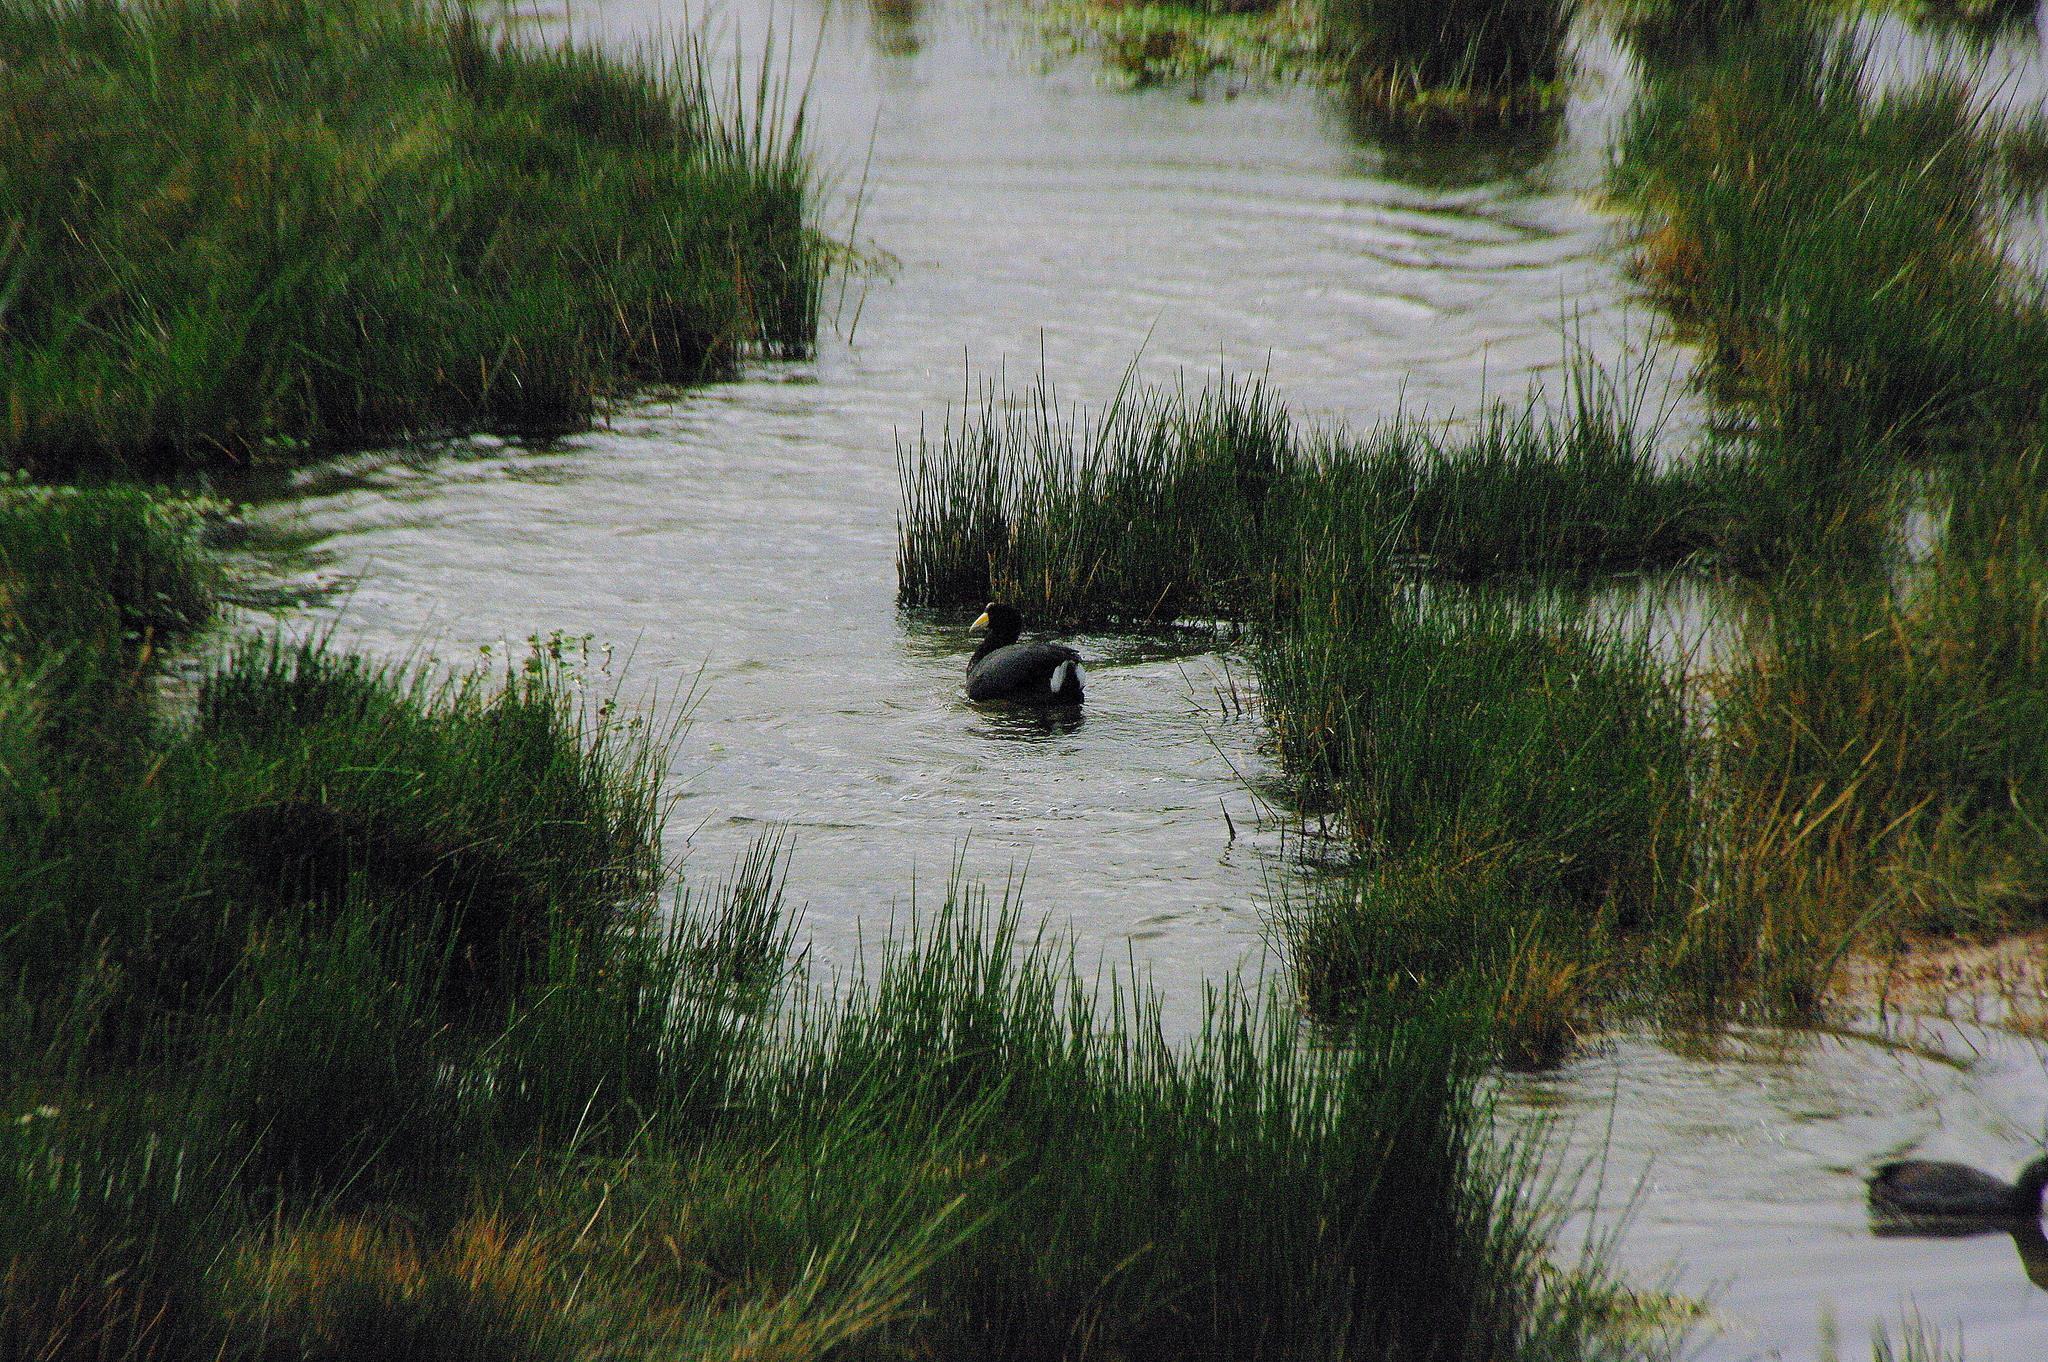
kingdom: Animalia
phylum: Chordata
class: Aves
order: Gruiformes
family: Rallidae
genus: Fulica
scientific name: Fulica ardesiaca
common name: Andean coot
